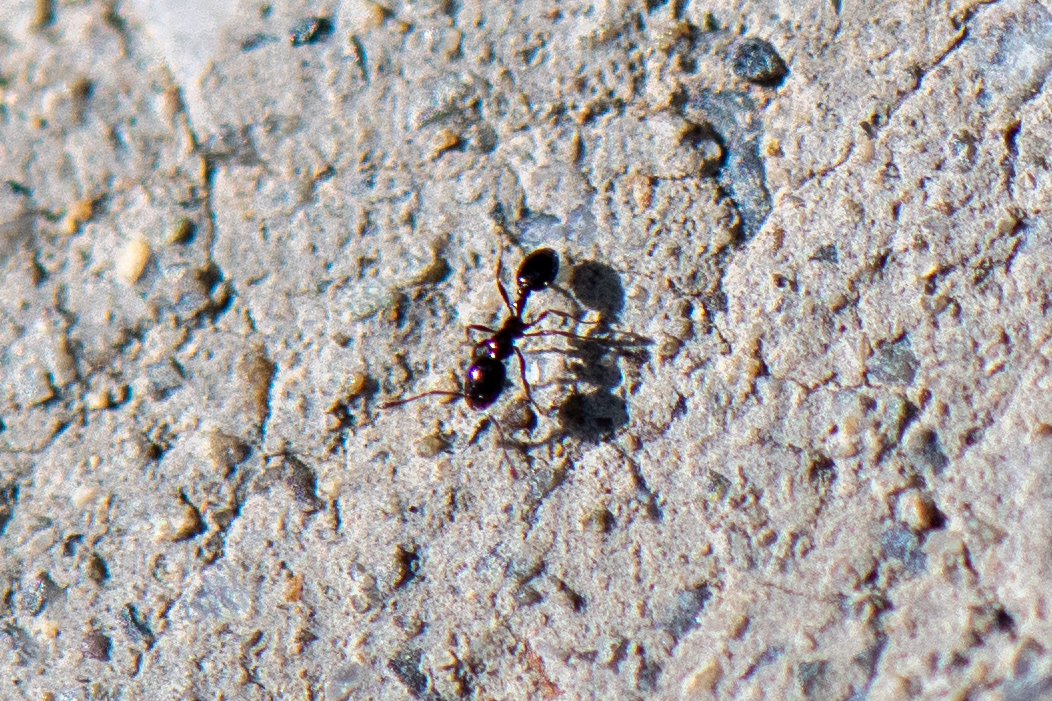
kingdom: Animalia
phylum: Arthropoda
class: Insecta
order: Hymenoptera
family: Formicidae
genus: Monomorium
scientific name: Monomorium ergatogyna
